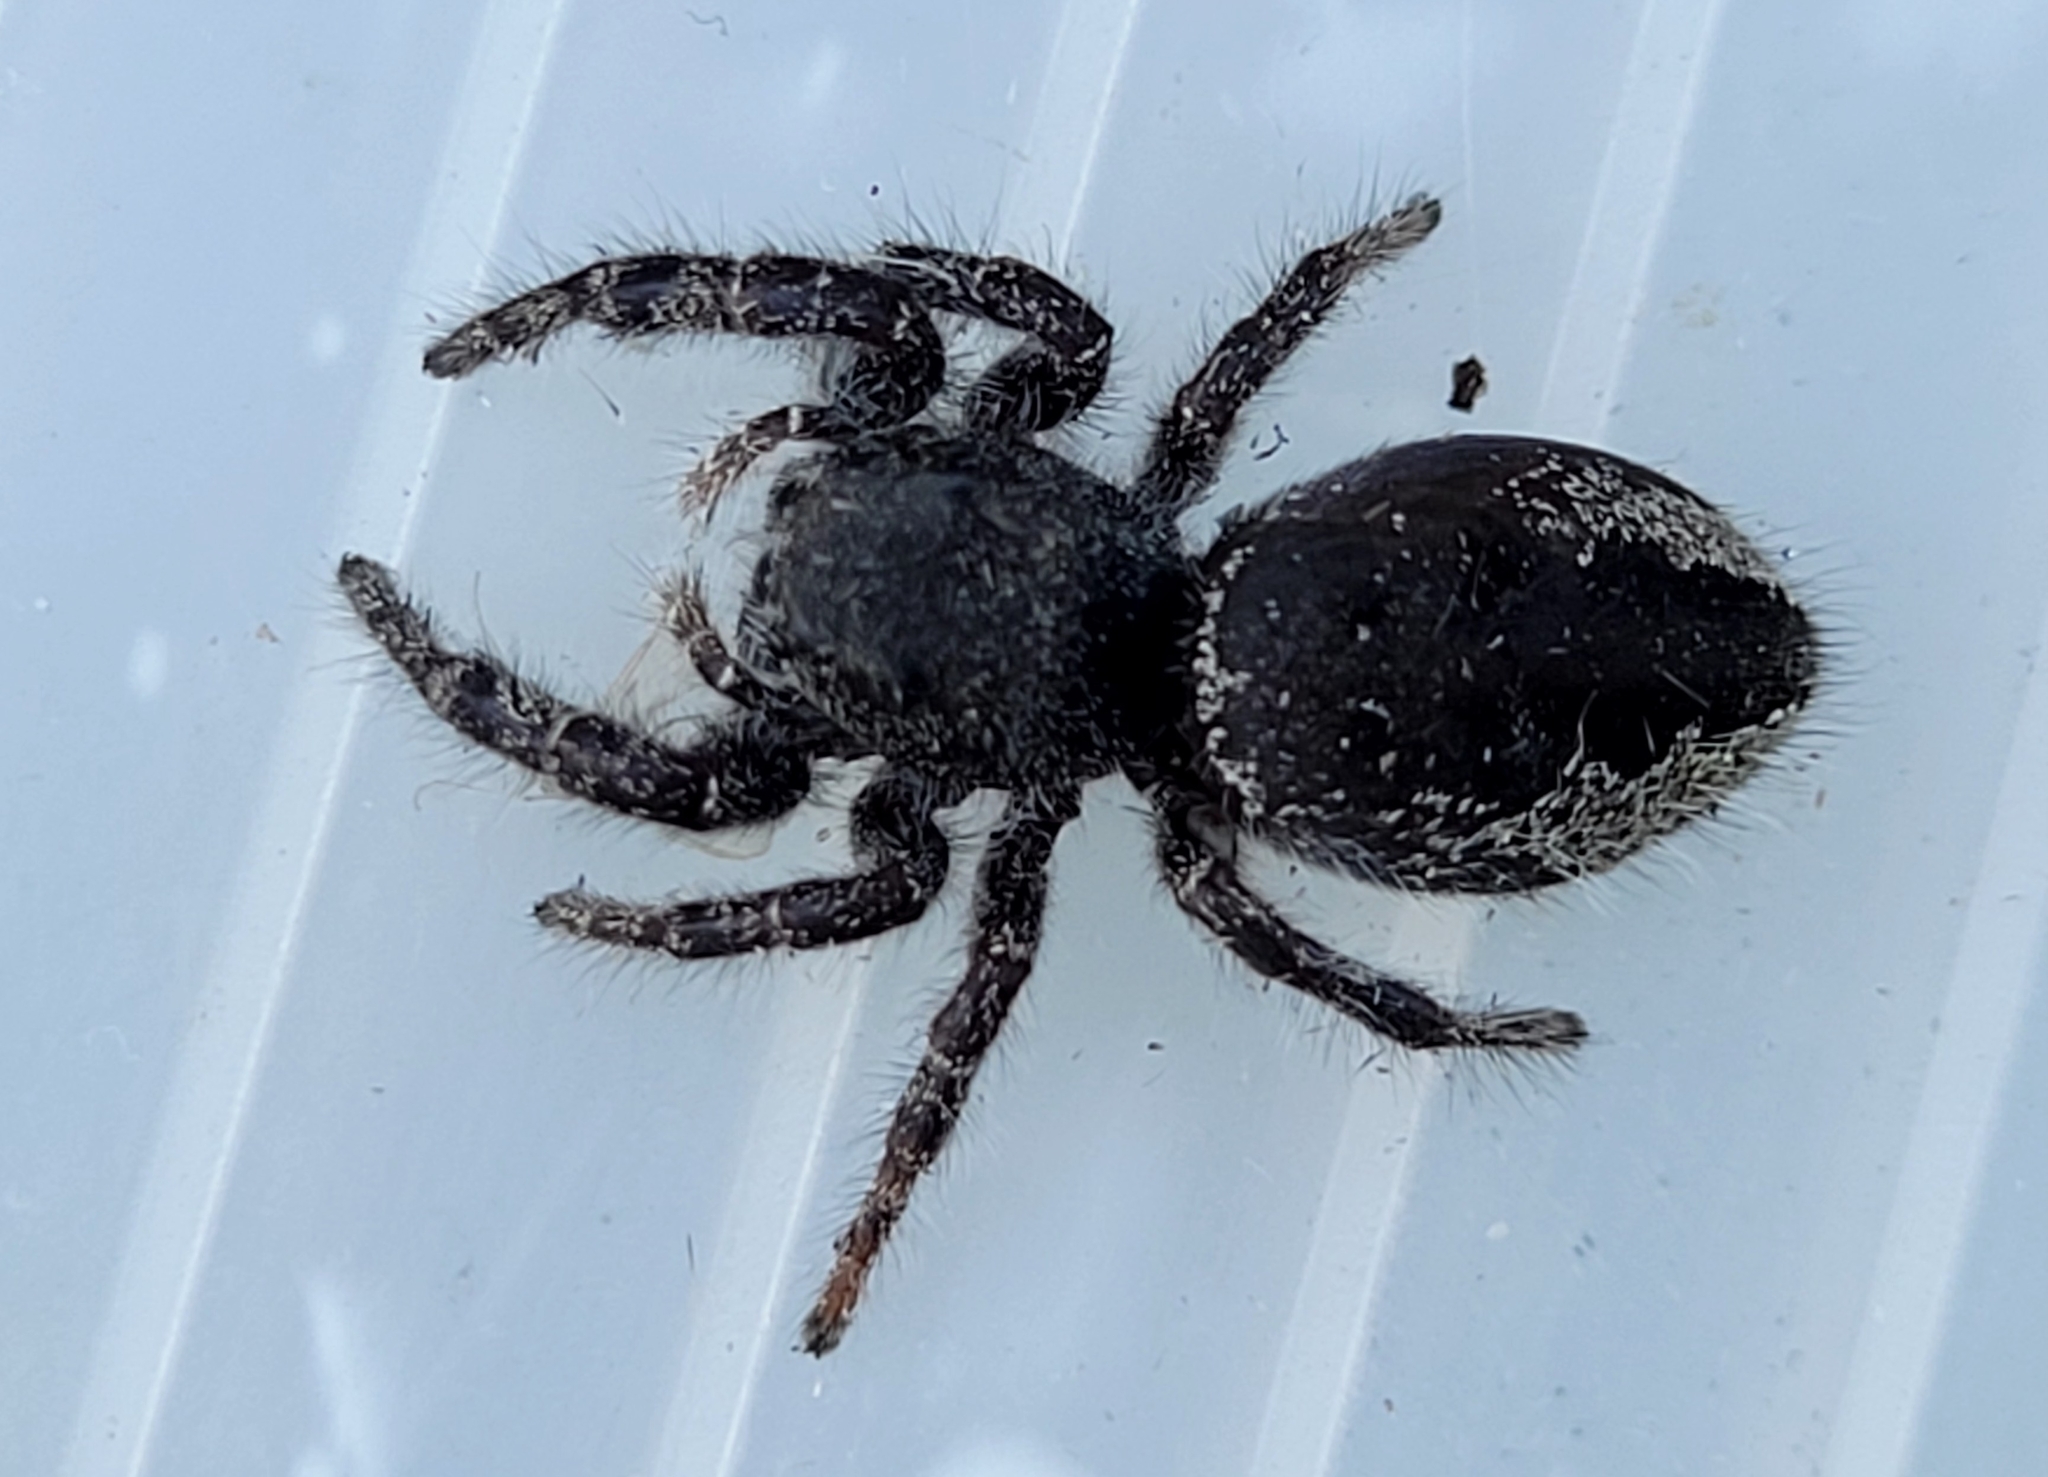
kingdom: Animalia
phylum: Arthropoda
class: Arachnida
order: Araneae
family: Salticidae
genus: Phidippus
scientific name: Phidippus borealis
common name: Boreal tufted jumping spider
